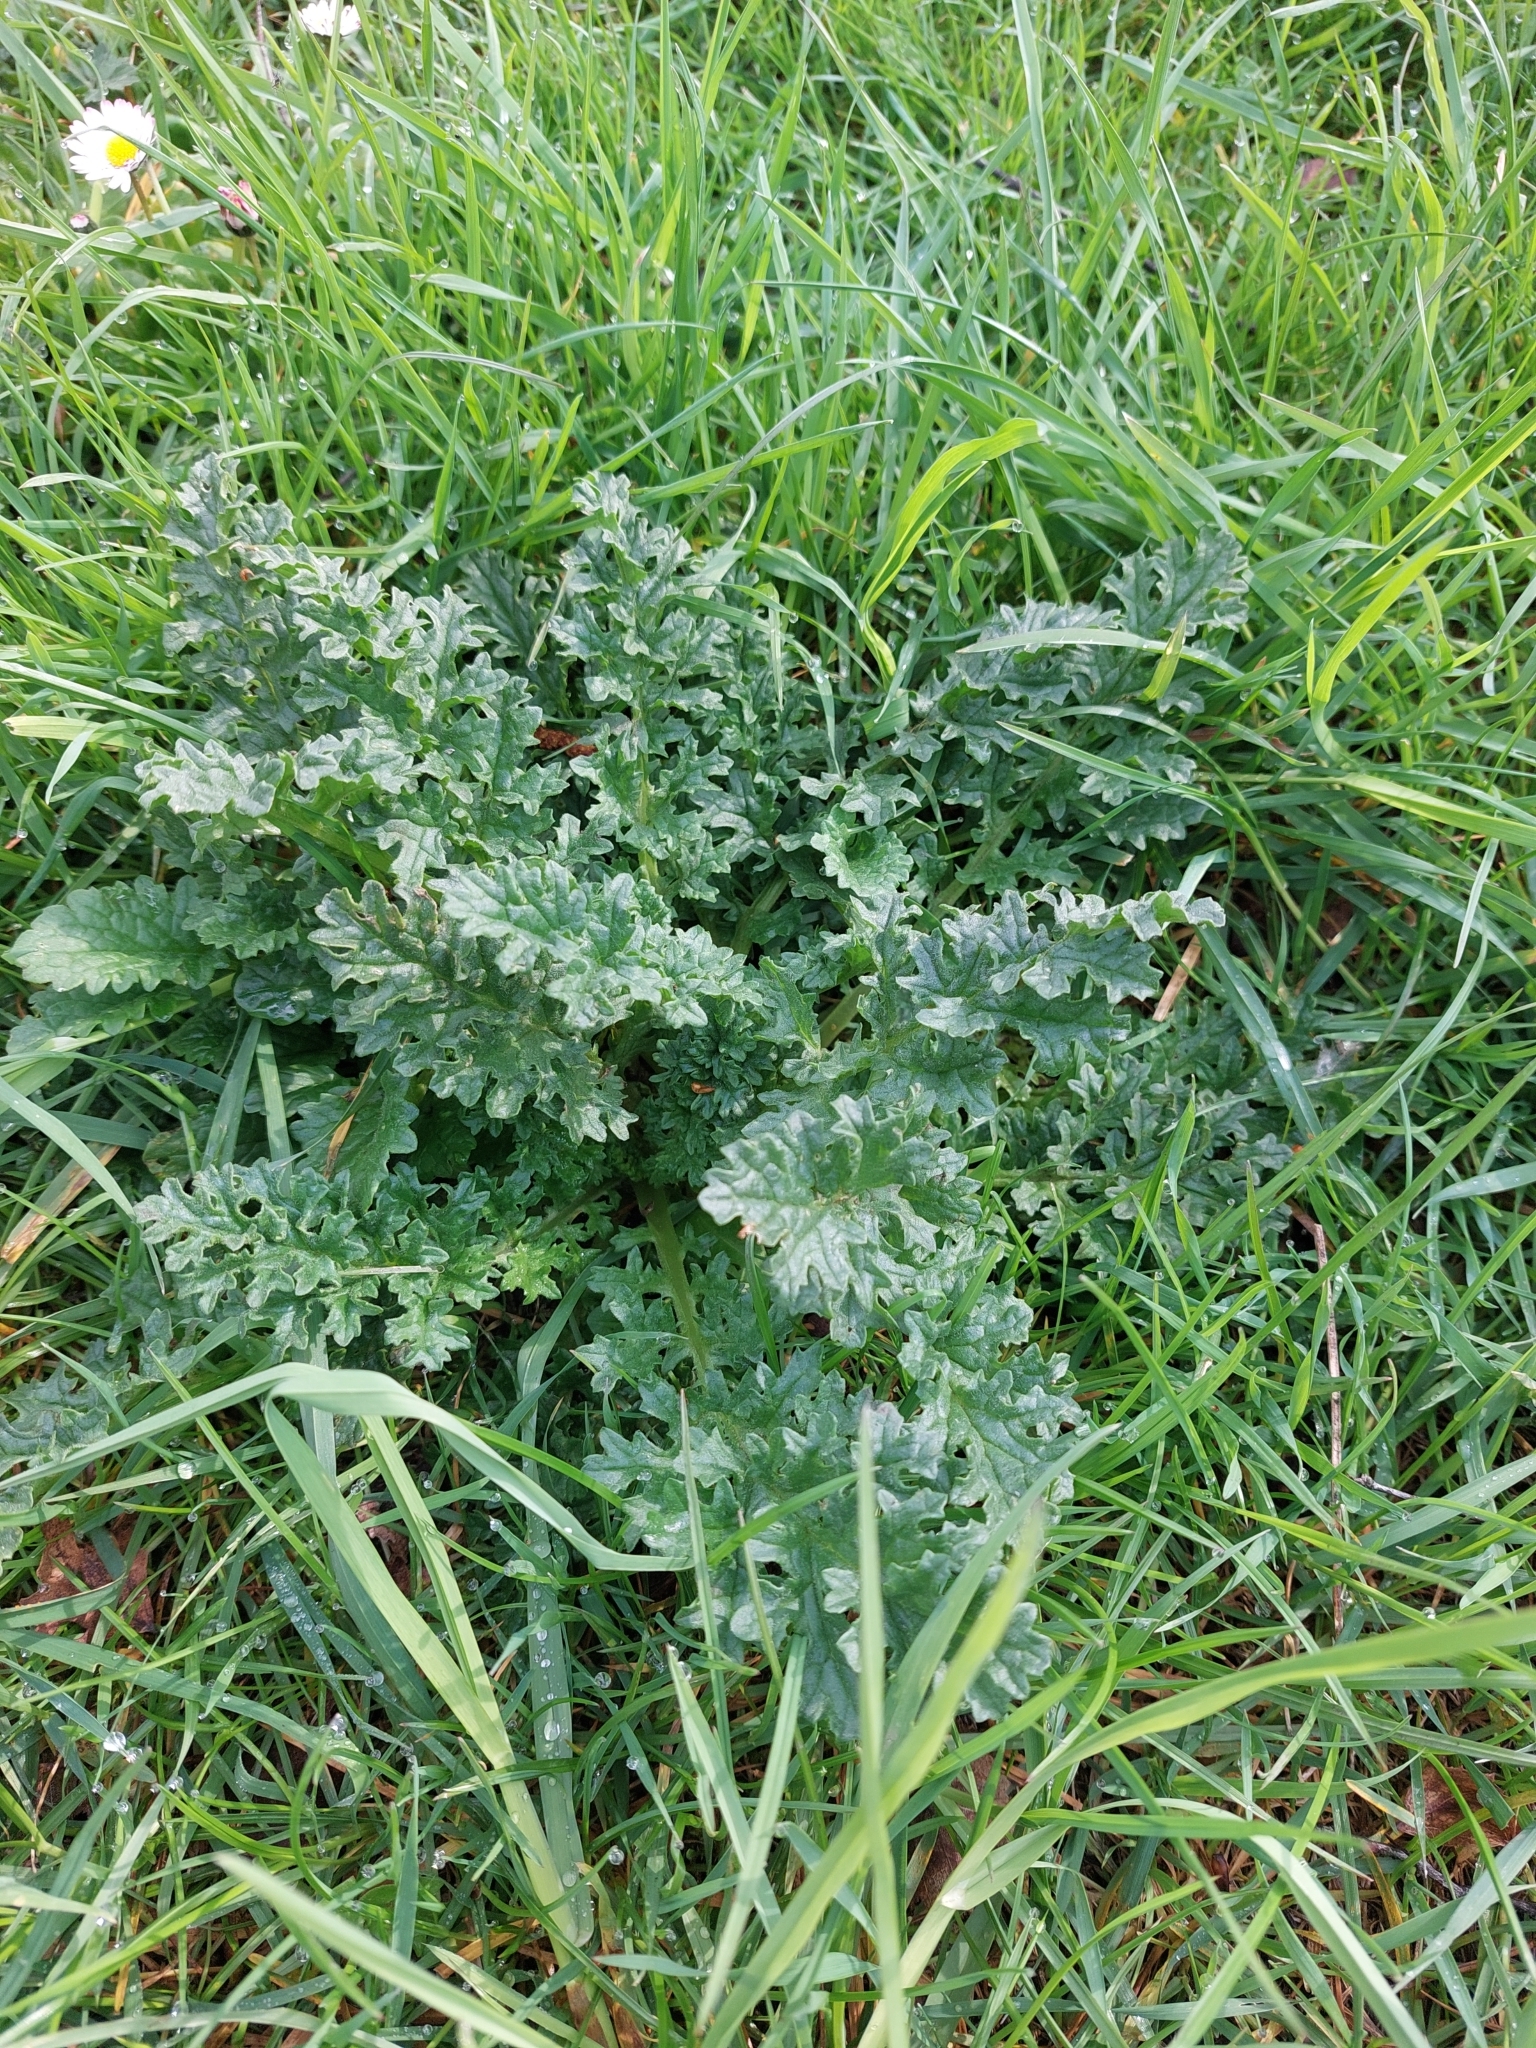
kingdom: Plantae
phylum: Tracheophyta
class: Magnoliopsida
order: Asterales
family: Asteraceae
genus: Jacobaea
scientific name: Jacobaea vulgaris
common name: Stinking willie
